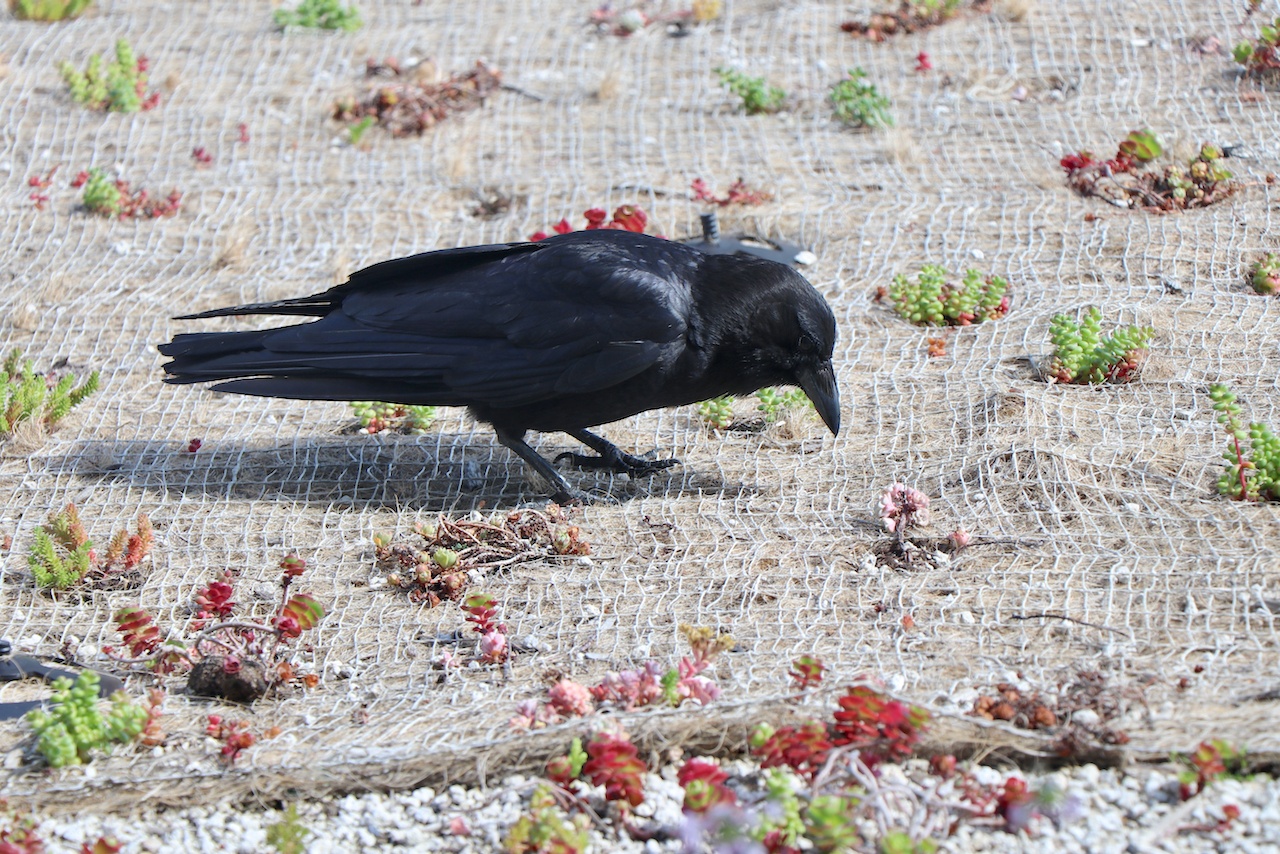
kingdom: Animalia
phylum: Chordata
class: Aves
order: Passeriformes
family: Corvidae
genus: Corvus
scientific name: Corvus brachyrhynchos
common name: American crow
